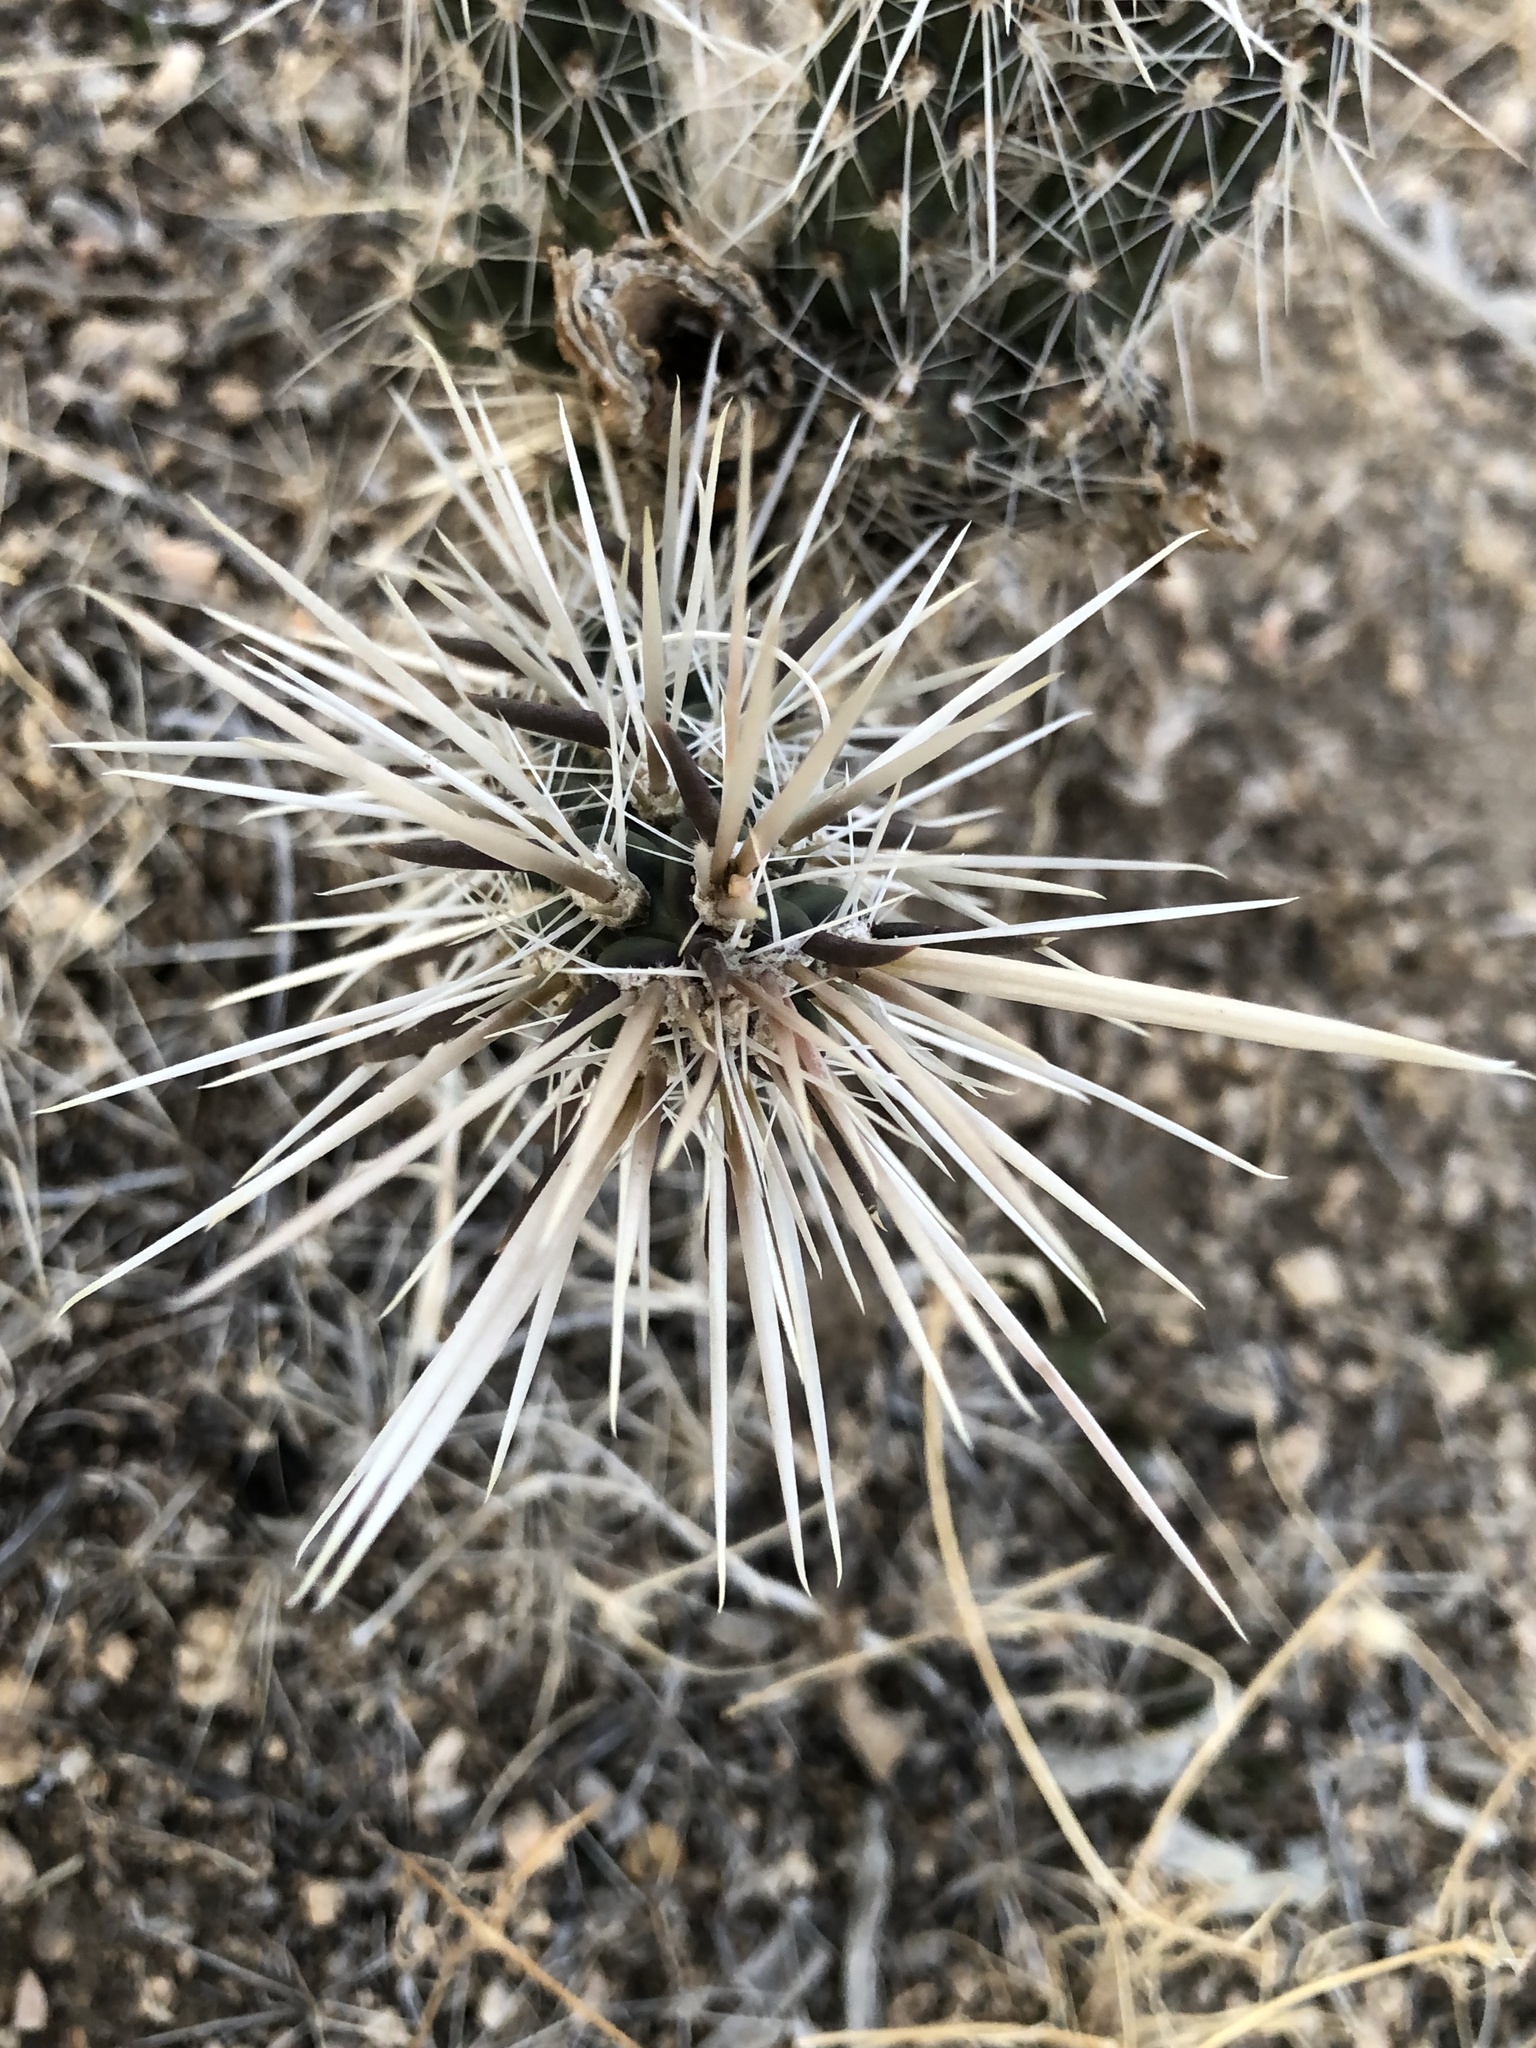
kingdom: Plantae
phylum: Tracheophyta
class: Magnoliopsida
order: Caryophyllales
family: Cactaceae
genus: Cylindropuntia
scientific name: Cylindropuntia echinocarpa
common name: Ground cholla
